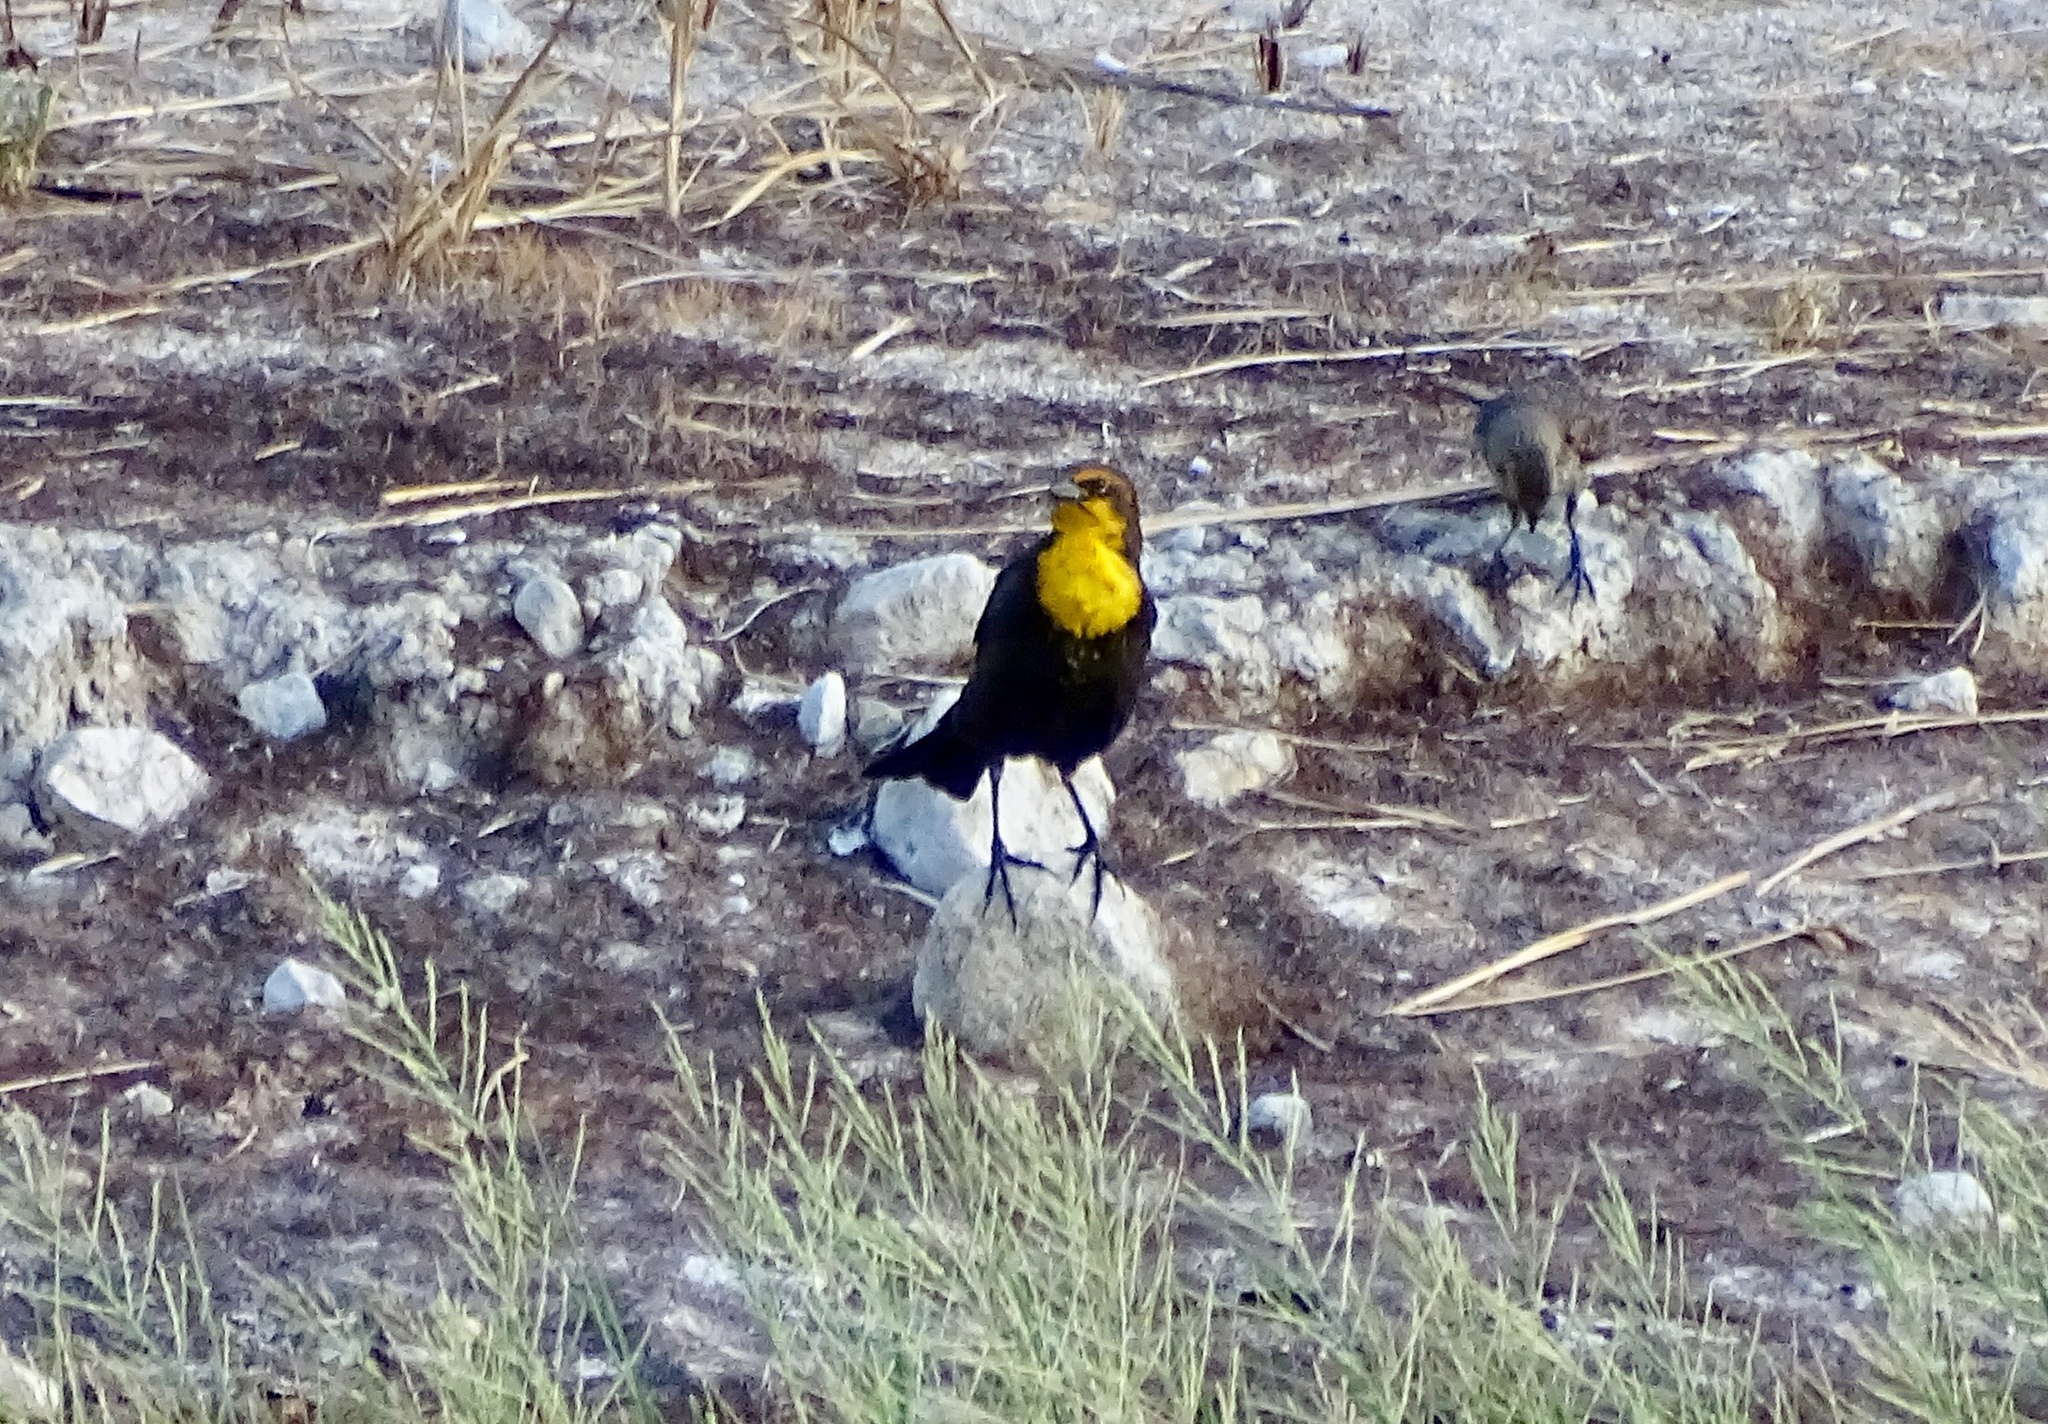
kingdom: Animalia
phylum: Chordata
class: Aves
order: Passeriformes
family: Icteridae
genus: Xanthocephalus
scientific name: Xanthocephalus xanthocephalus
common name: Yellow-headed blackbird
